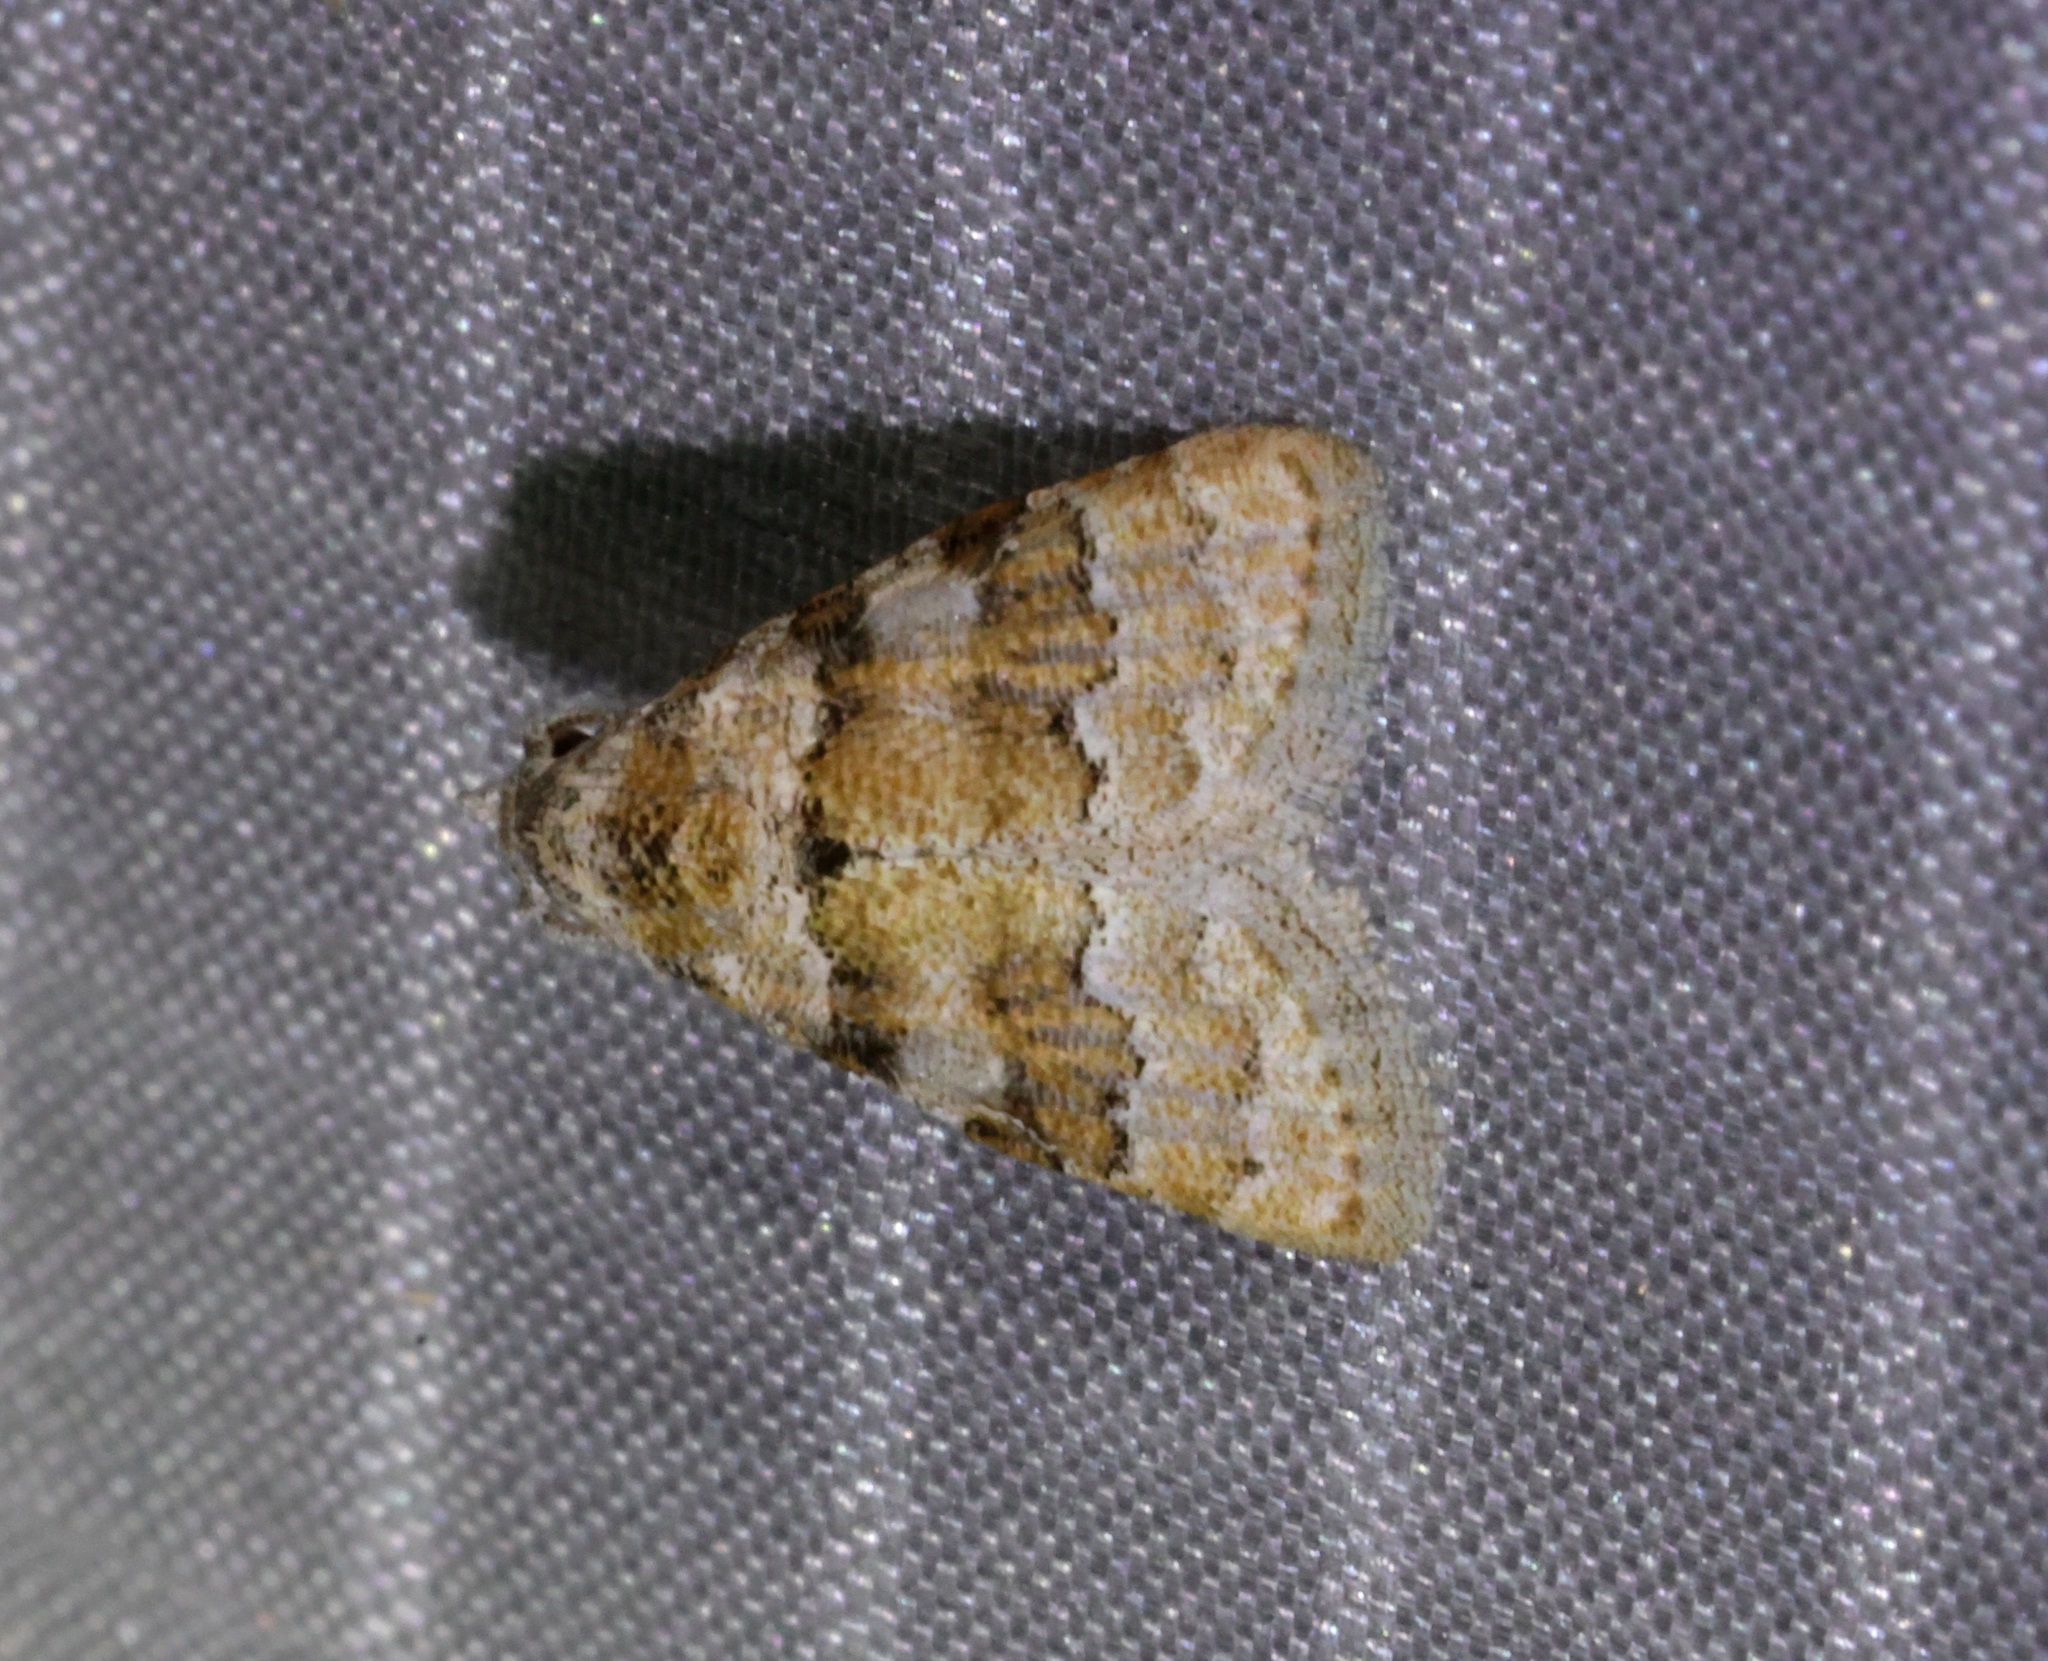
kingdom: Animalia
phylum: Arthropoda
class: Insecta
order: Lepidoptera
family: Nolidae
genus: Nola
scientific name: Nola bifascialis
